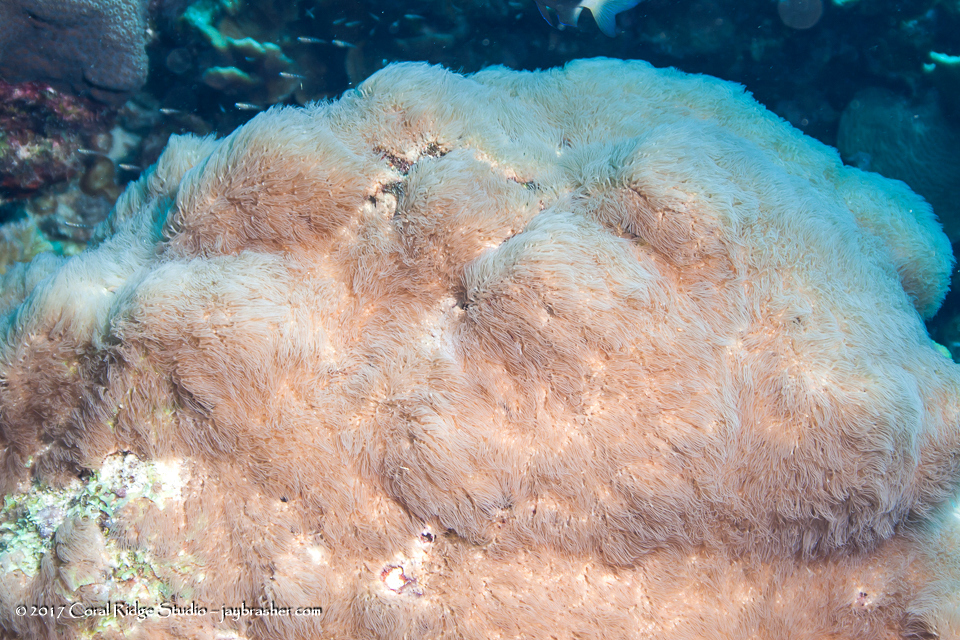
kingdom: Animalia
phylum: Cnidaria
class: Anthozoa
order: Scleralcyonacea
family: Erythropodiidae
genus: Erythropodium
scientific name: Erythropodium caribaeorum
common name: Encrusting gorgonian
